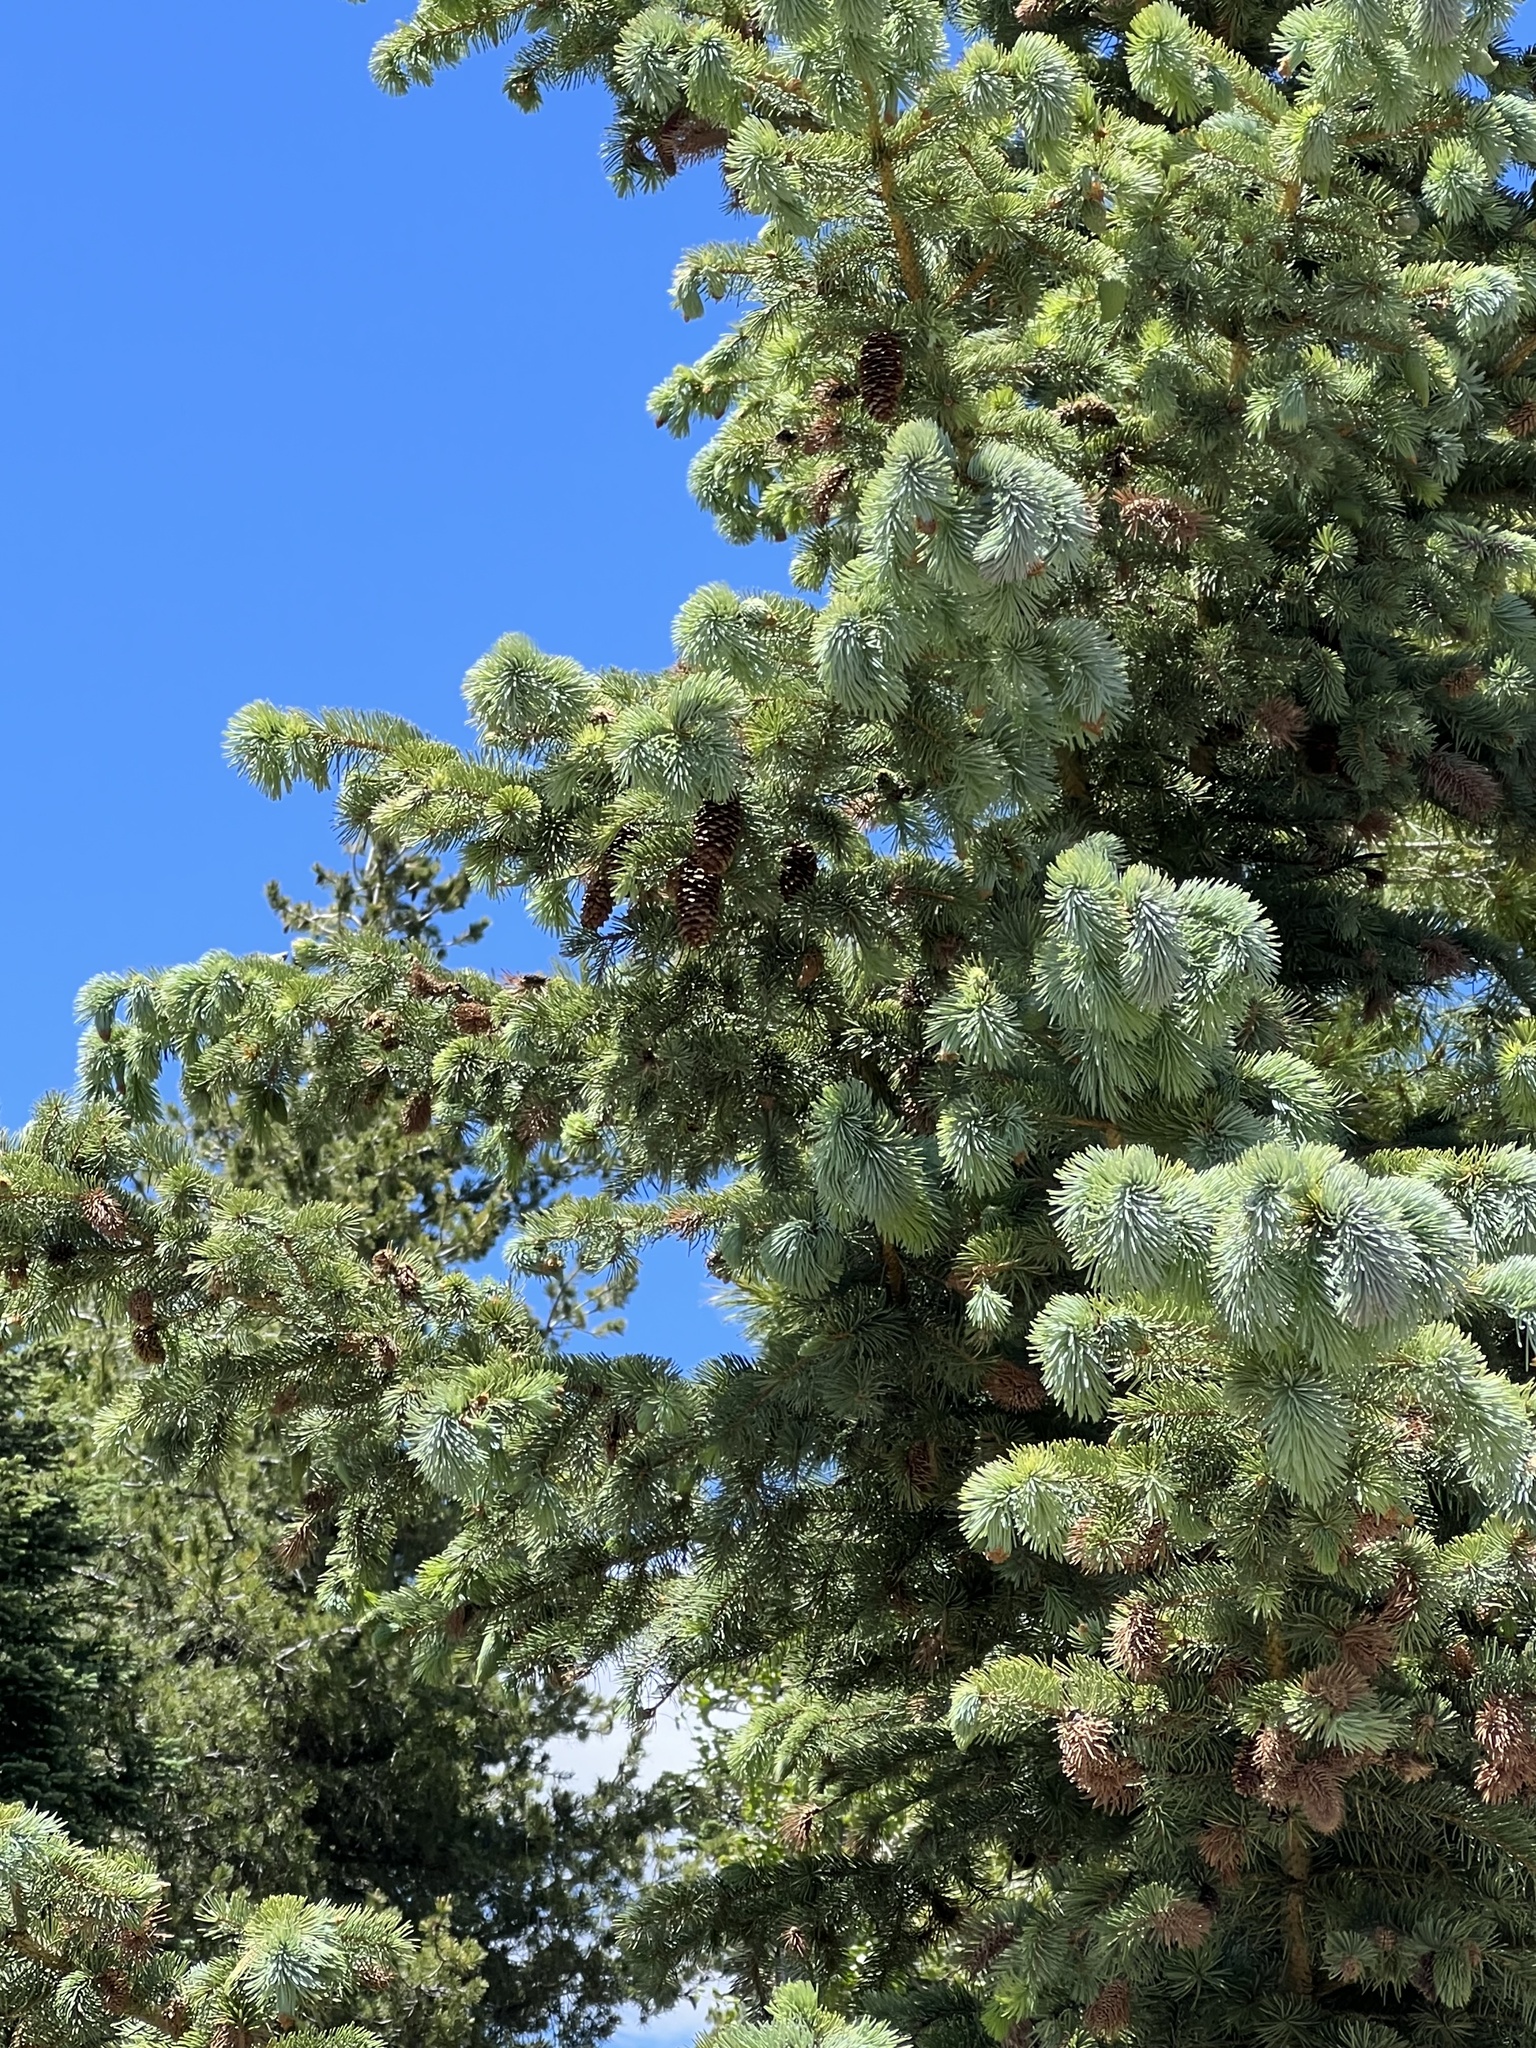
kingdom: Plantae
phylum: Tracheophyta
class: Pinopsida
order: Pinales
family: Pinaceae
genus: Picea
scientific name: Picea engelmannii
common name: Engelmann spruce
